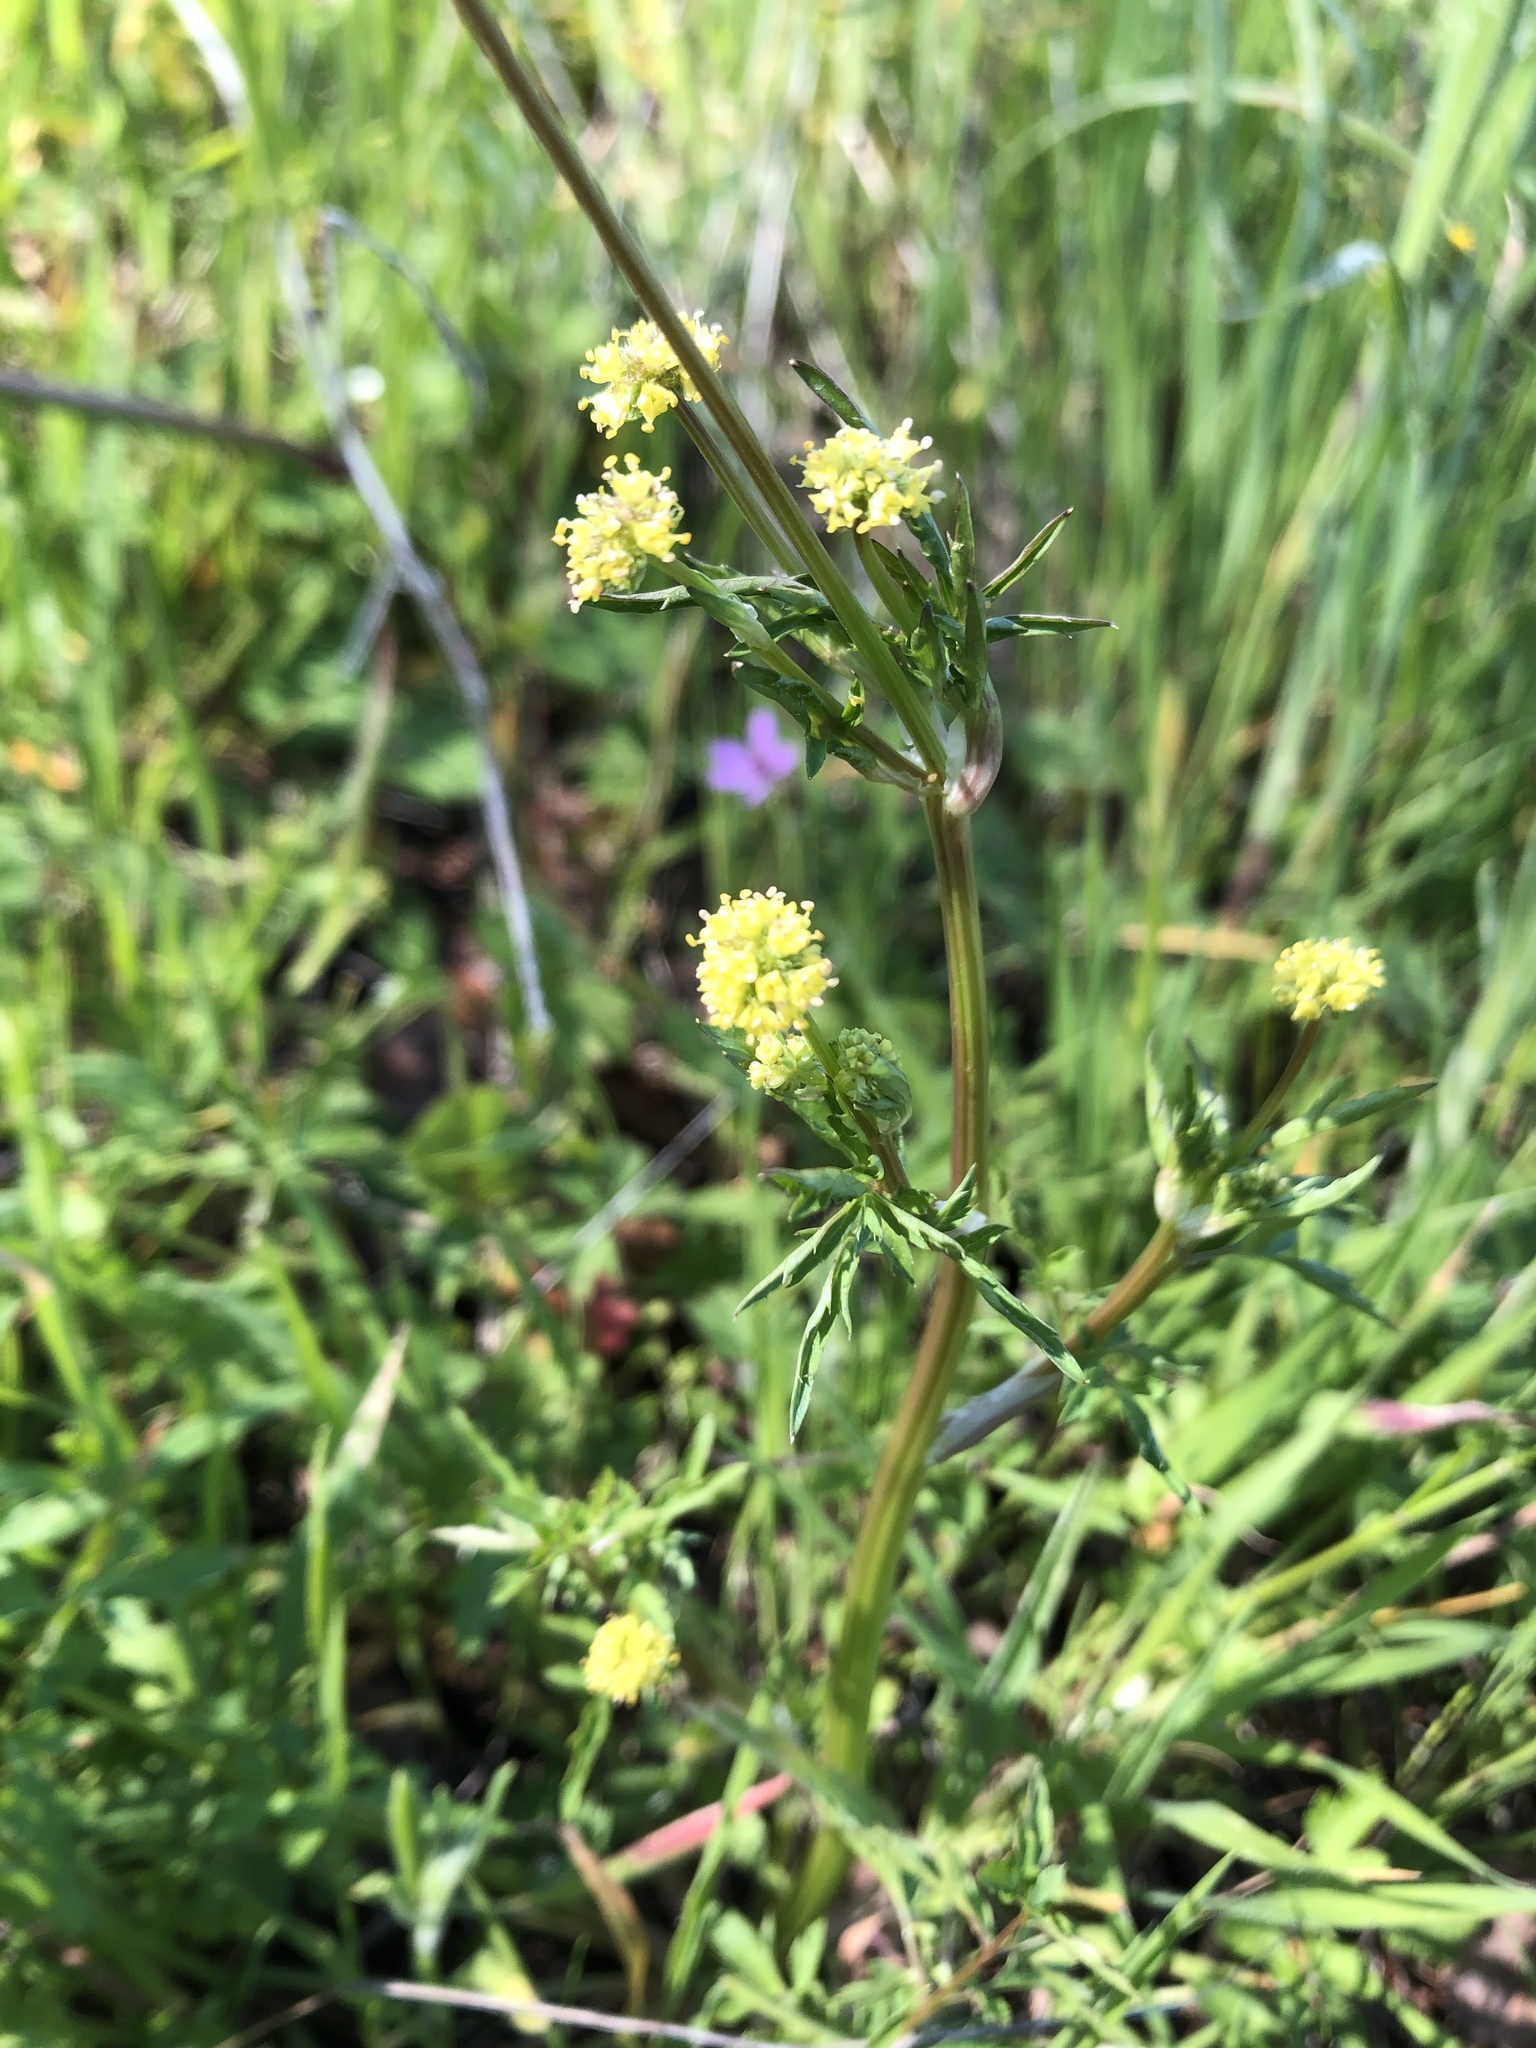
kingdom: Plantae
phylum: Tracheophyta
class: Magnoliopsida
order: Apiales
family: Apiaceae
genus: Sanicula
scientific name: Sanicula bipinnata
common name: Poison sanicle
